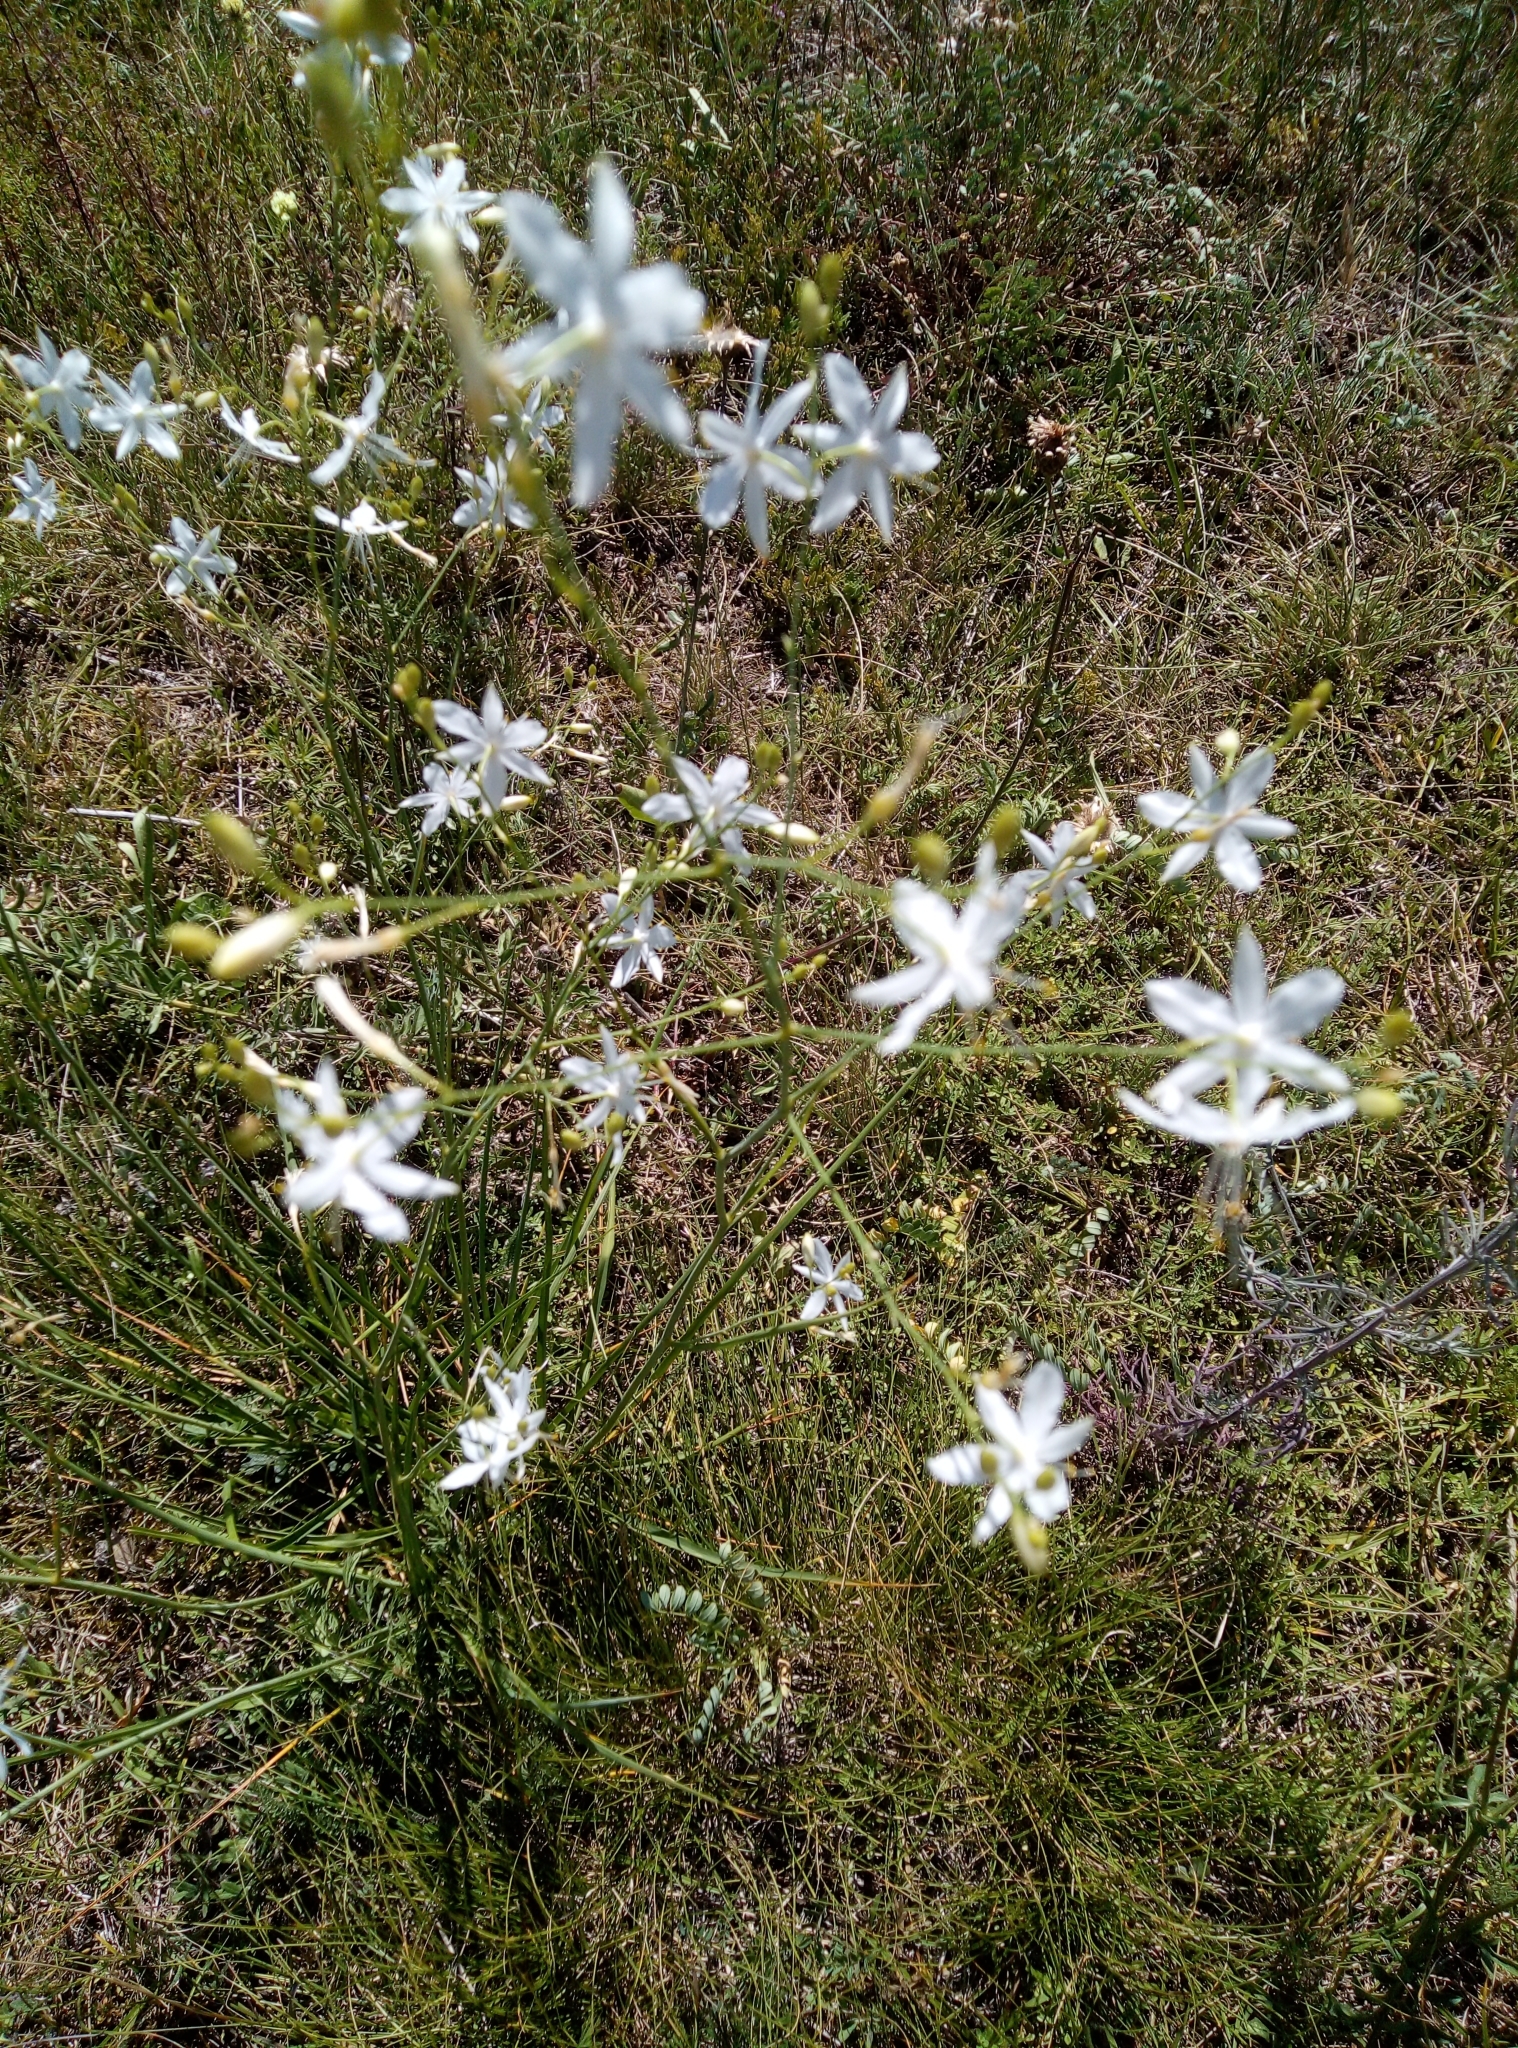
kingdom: Plantae
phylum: Tracheophyta
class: Liliopsida
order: Asparagales
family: Asparagaceae
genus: Anthericum
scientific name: Anthericum ramosum
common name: Branched st. bernard's-lily
